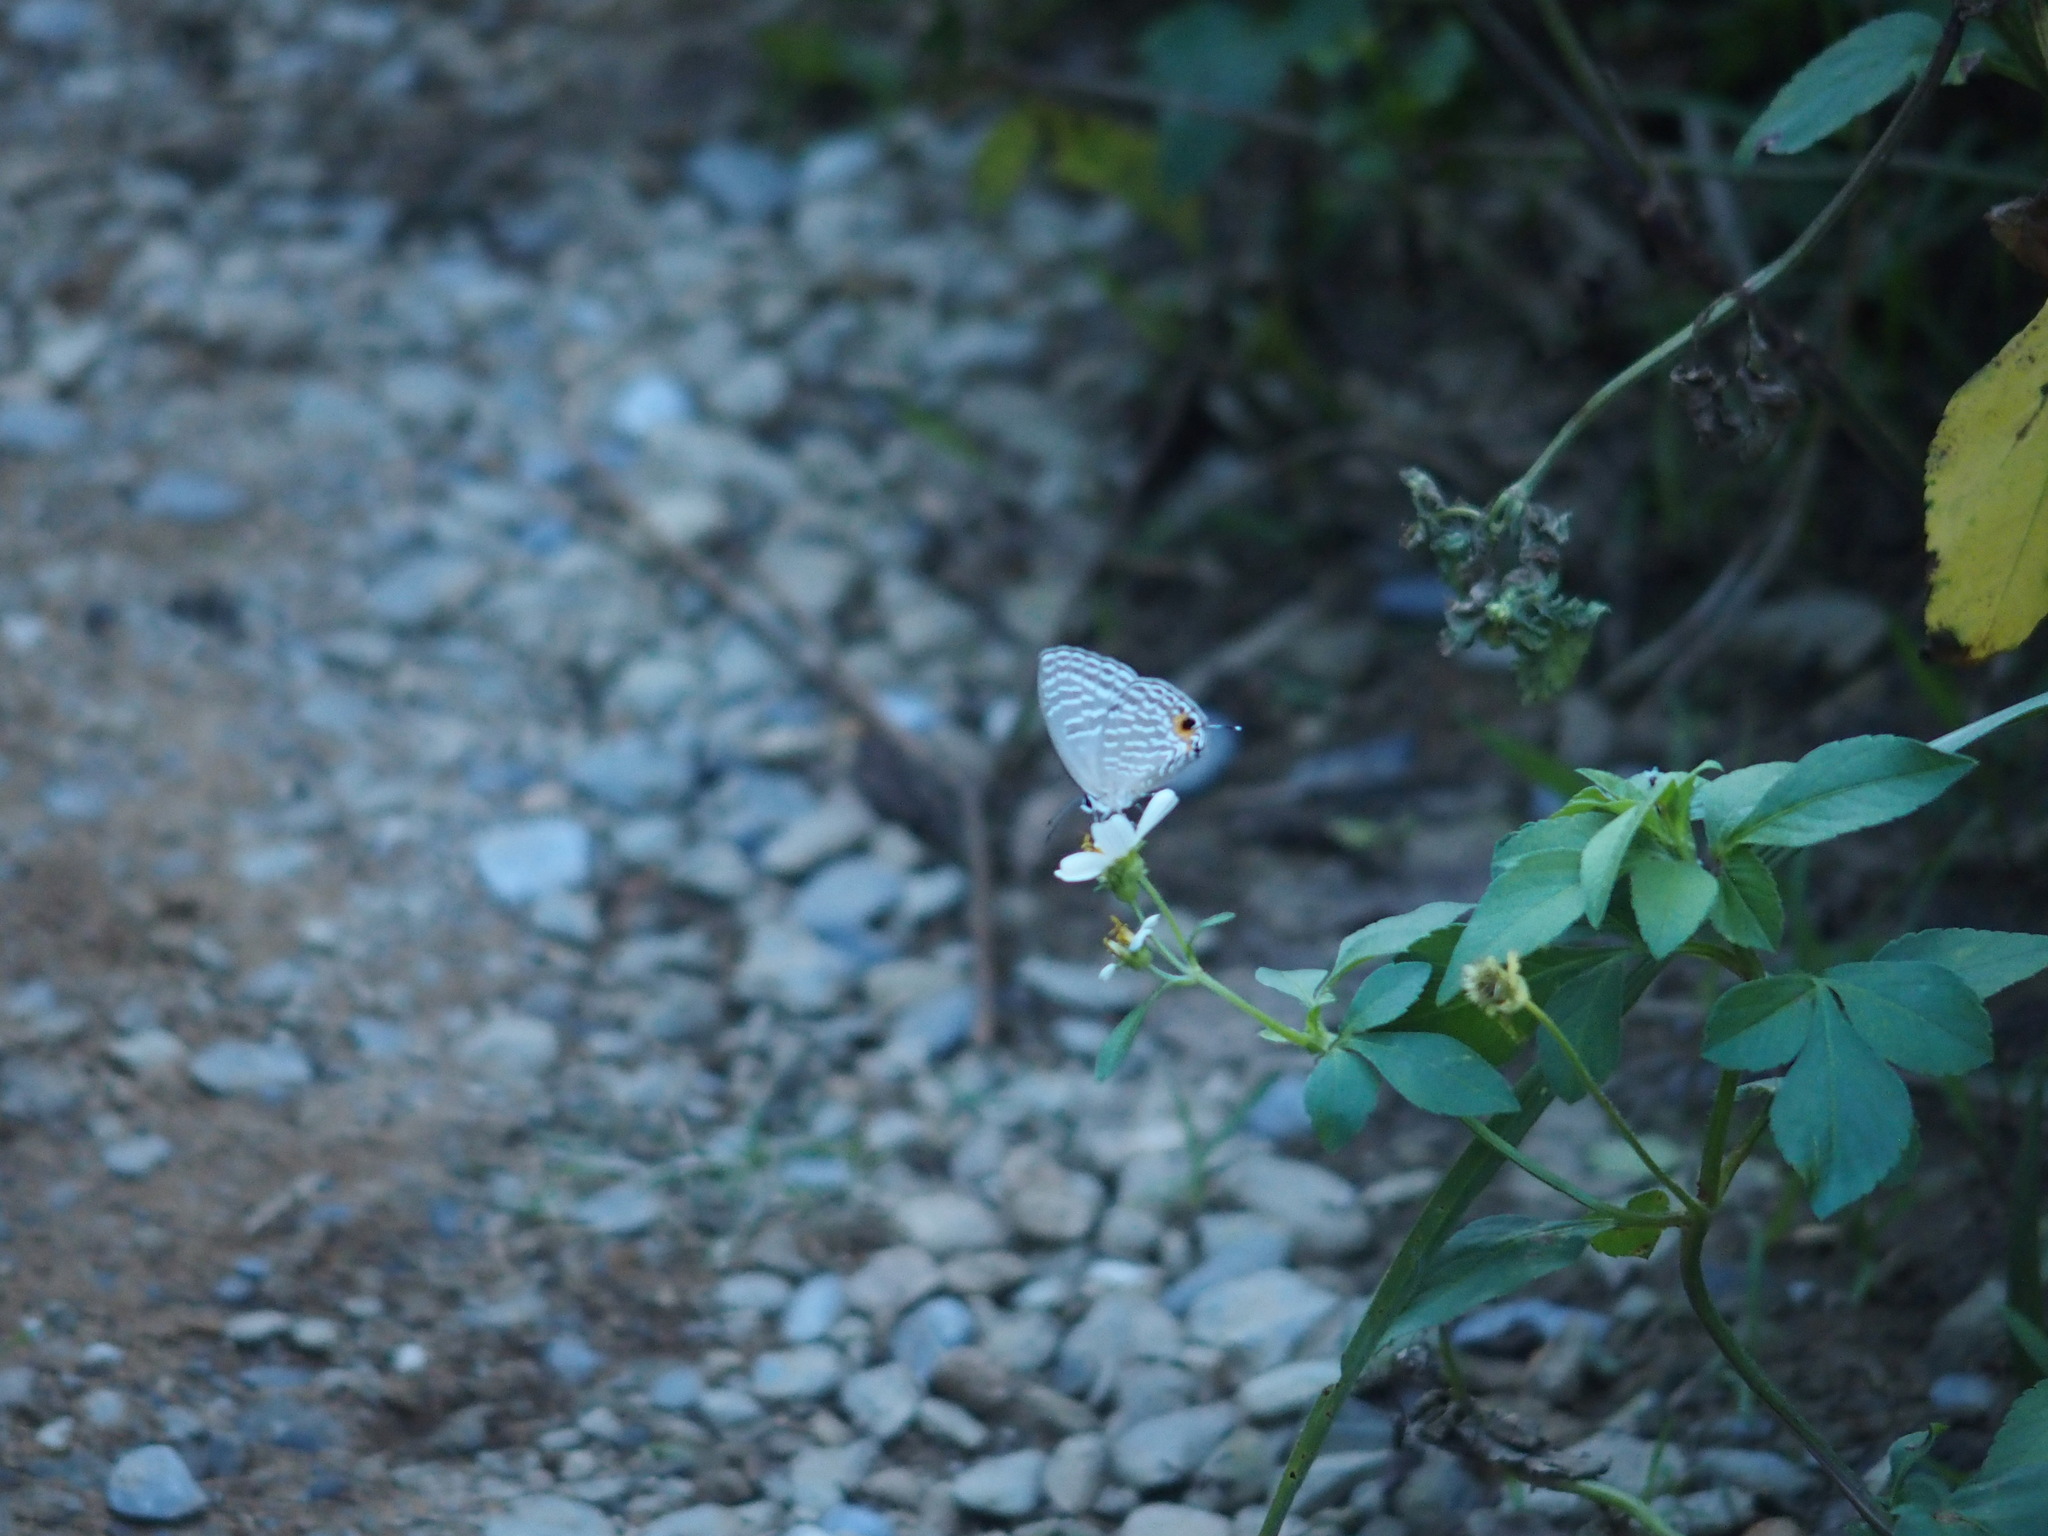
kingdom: Animalia
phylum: Arthropoda
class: Insecta
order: Lepidoptera
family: Lycaenidae
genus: Jamides
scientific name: Jamides alecto
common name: Metallic cerulean
